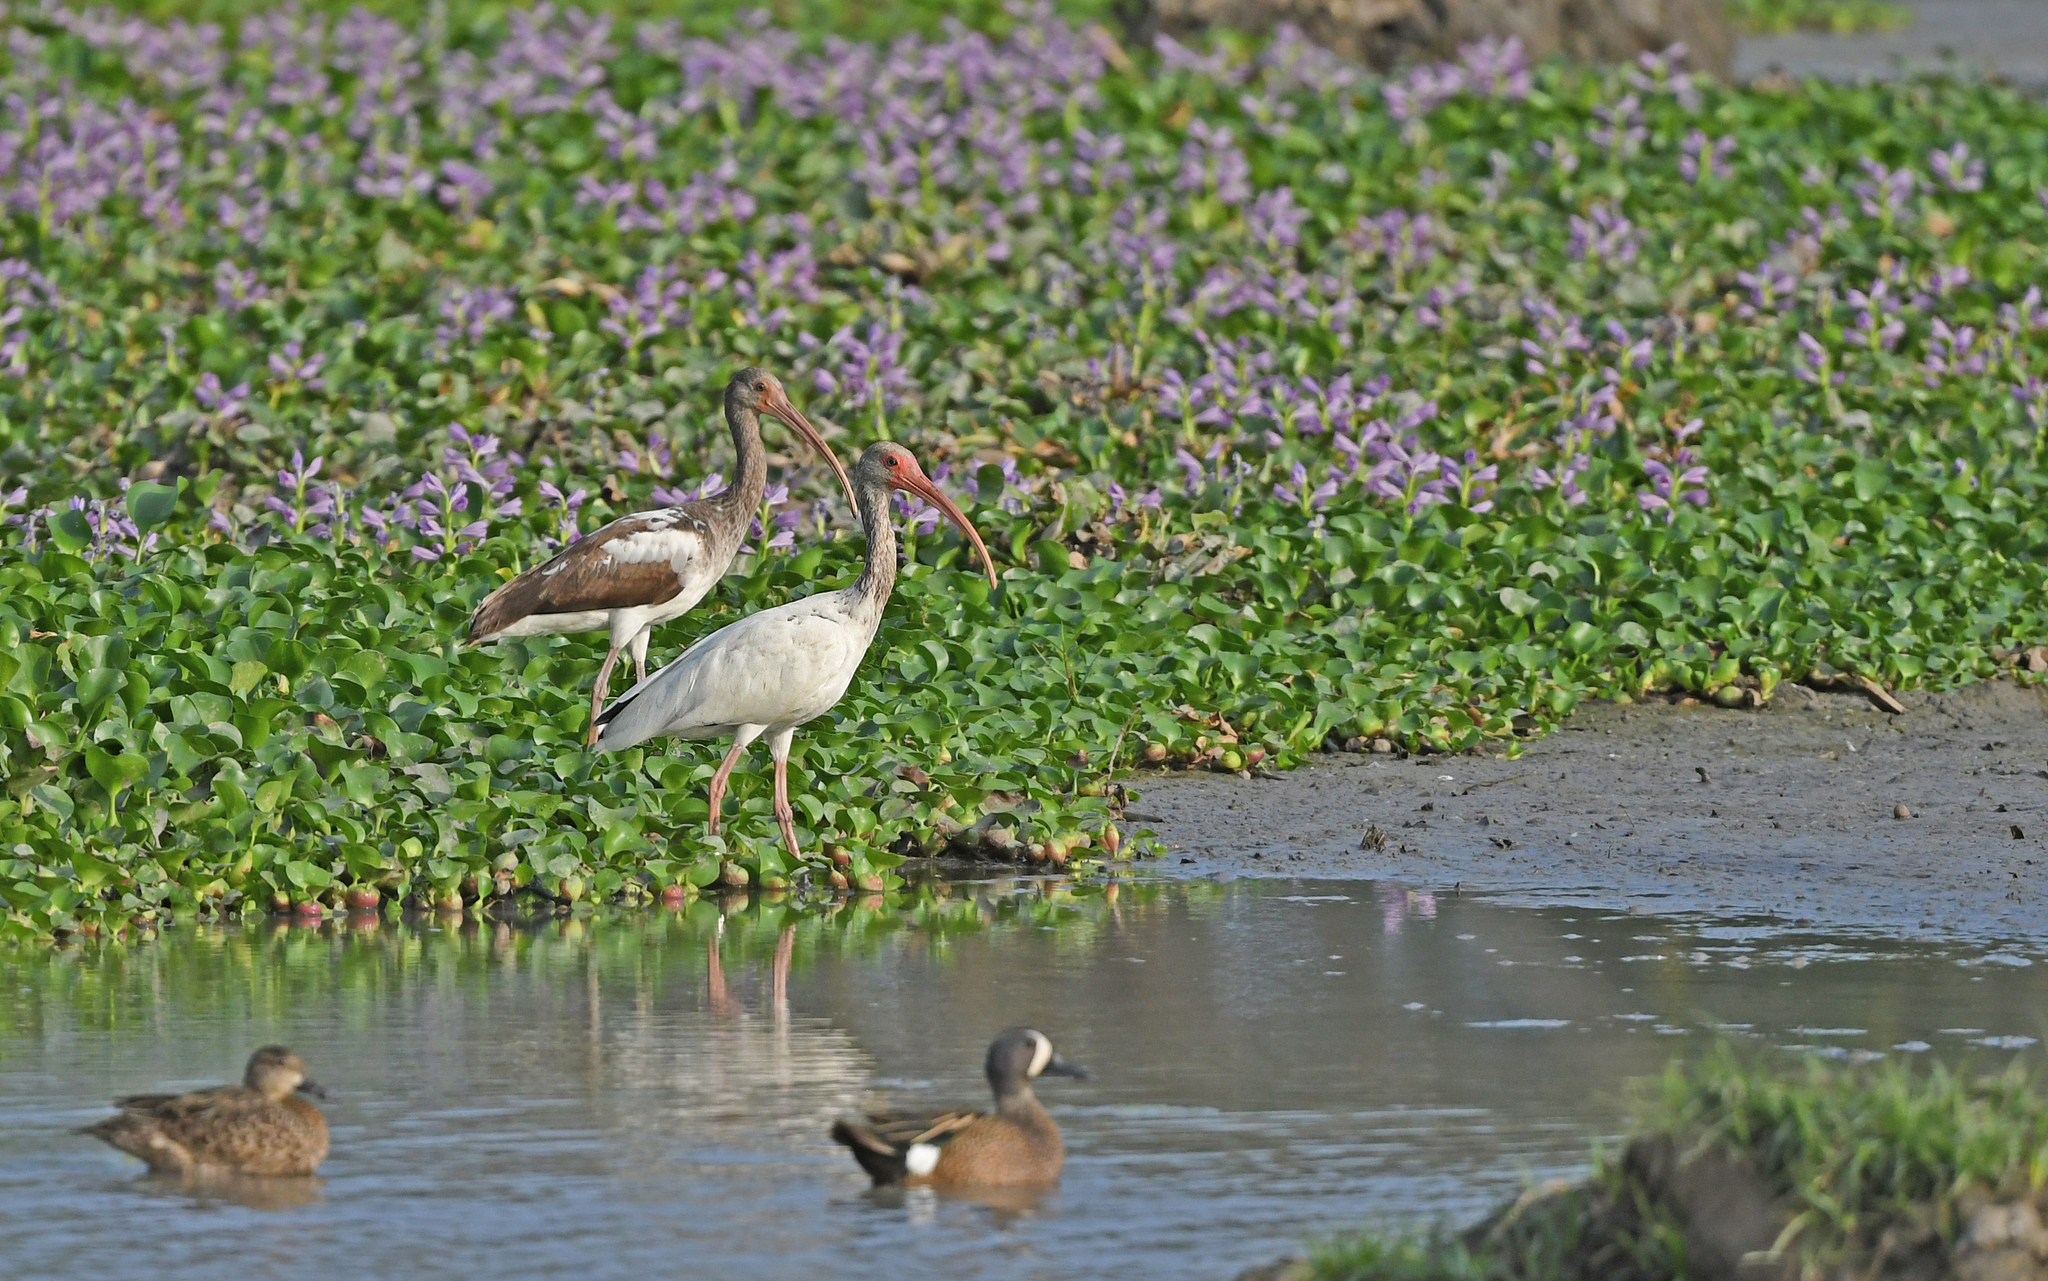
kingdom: Animalia
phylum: Chordata
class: Aves
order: Pelecaniformes
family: Threskiornithidae
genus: Eudocimus
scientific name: Eudocimus albus
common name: White ibis
